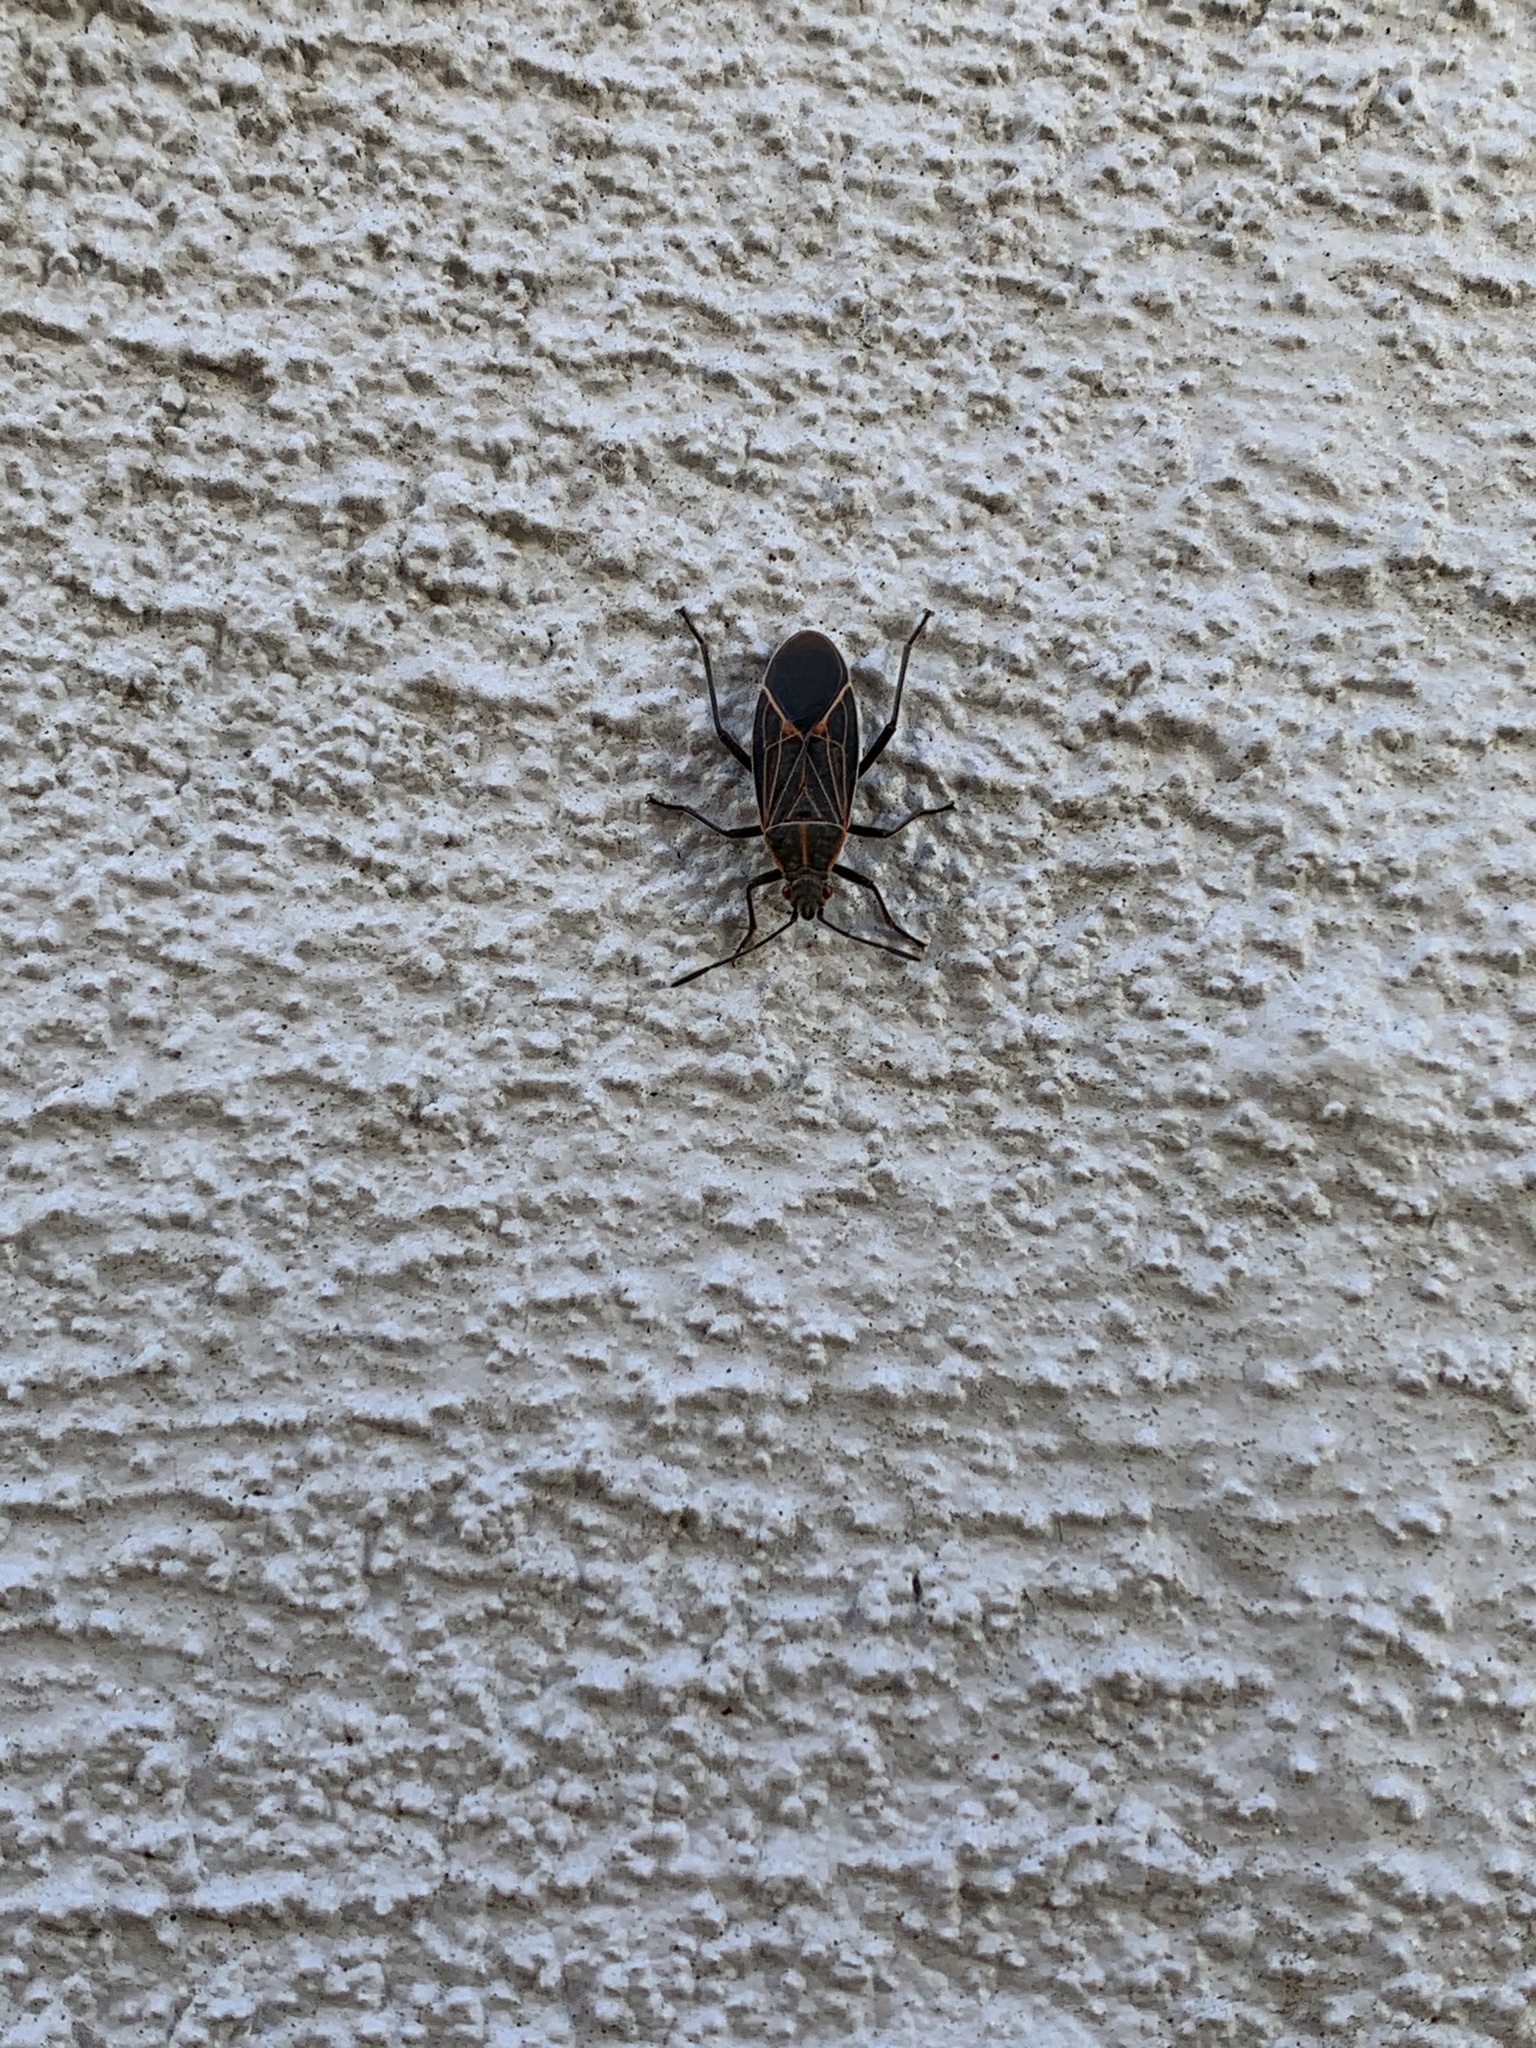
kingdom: Animalia
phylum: Arthropoda
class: Insecta
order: Hemiptera
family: Rhopalidae
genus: Boisea
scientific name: Boisea rubrolineata
